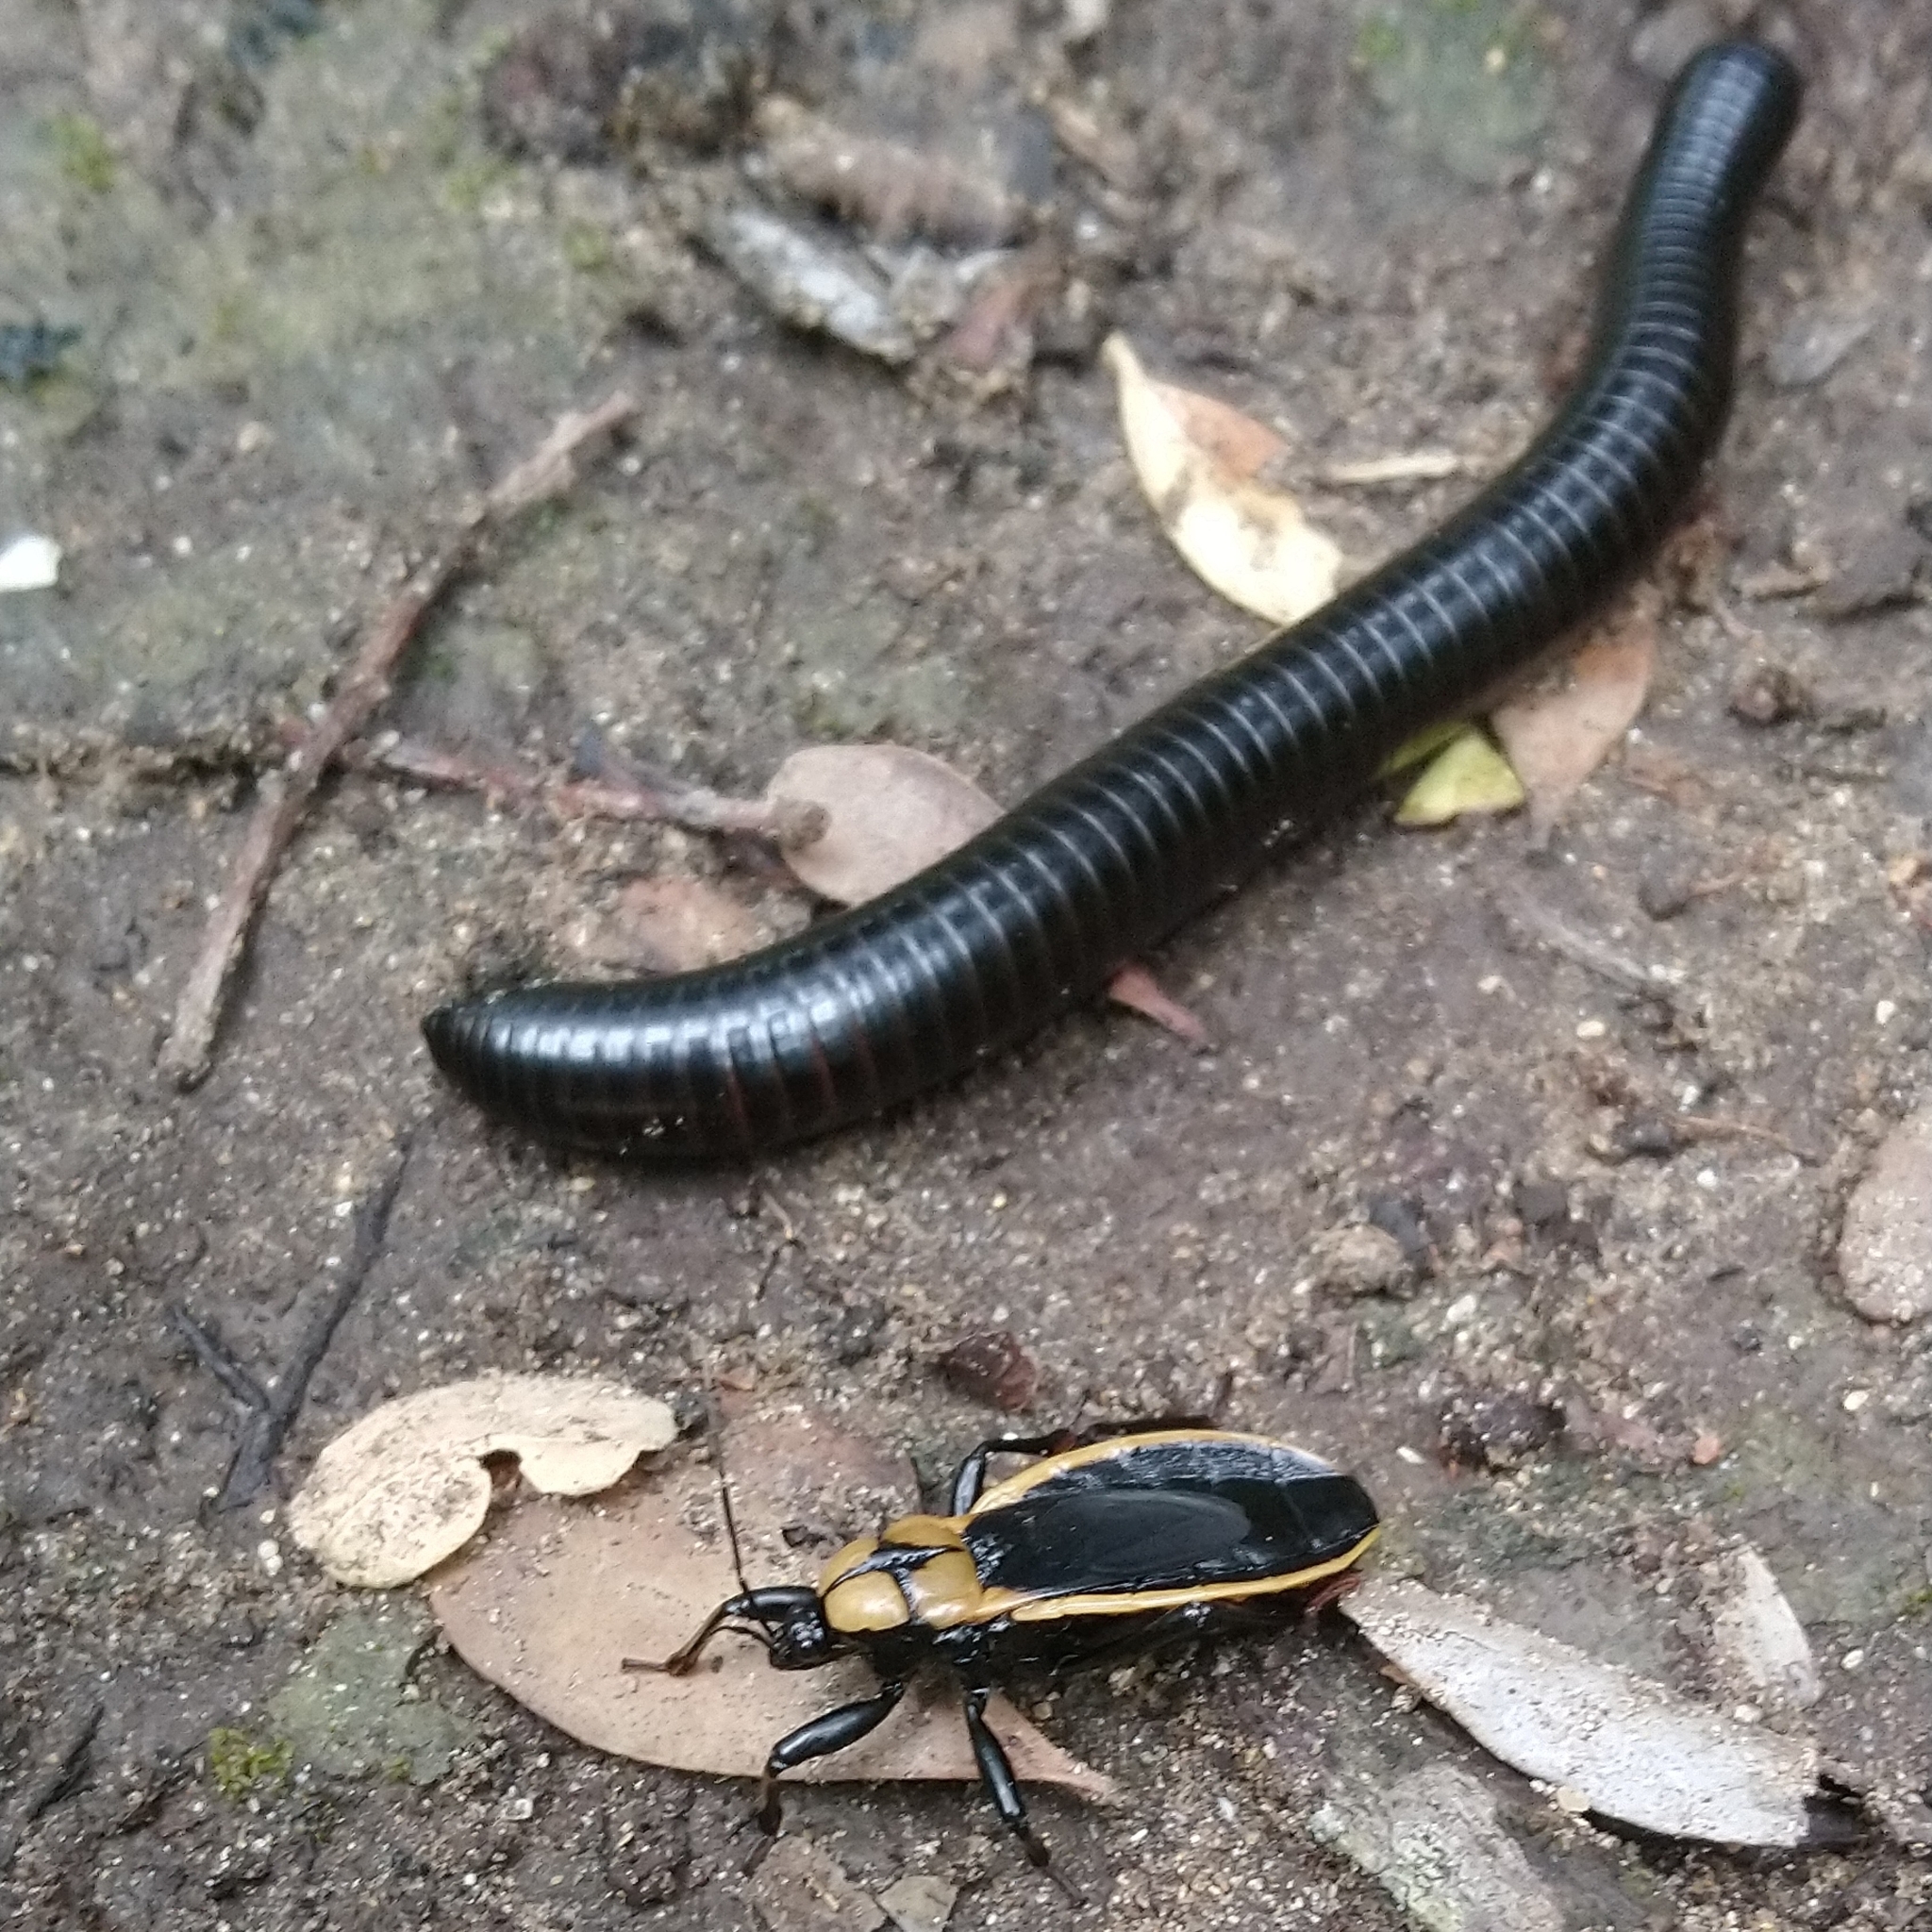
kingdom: Animalia
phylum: Arthropoda
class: Insecta
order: Hemiptera
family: Reduviidae
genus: Ectrichodia
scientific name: Ectrichodia crux
